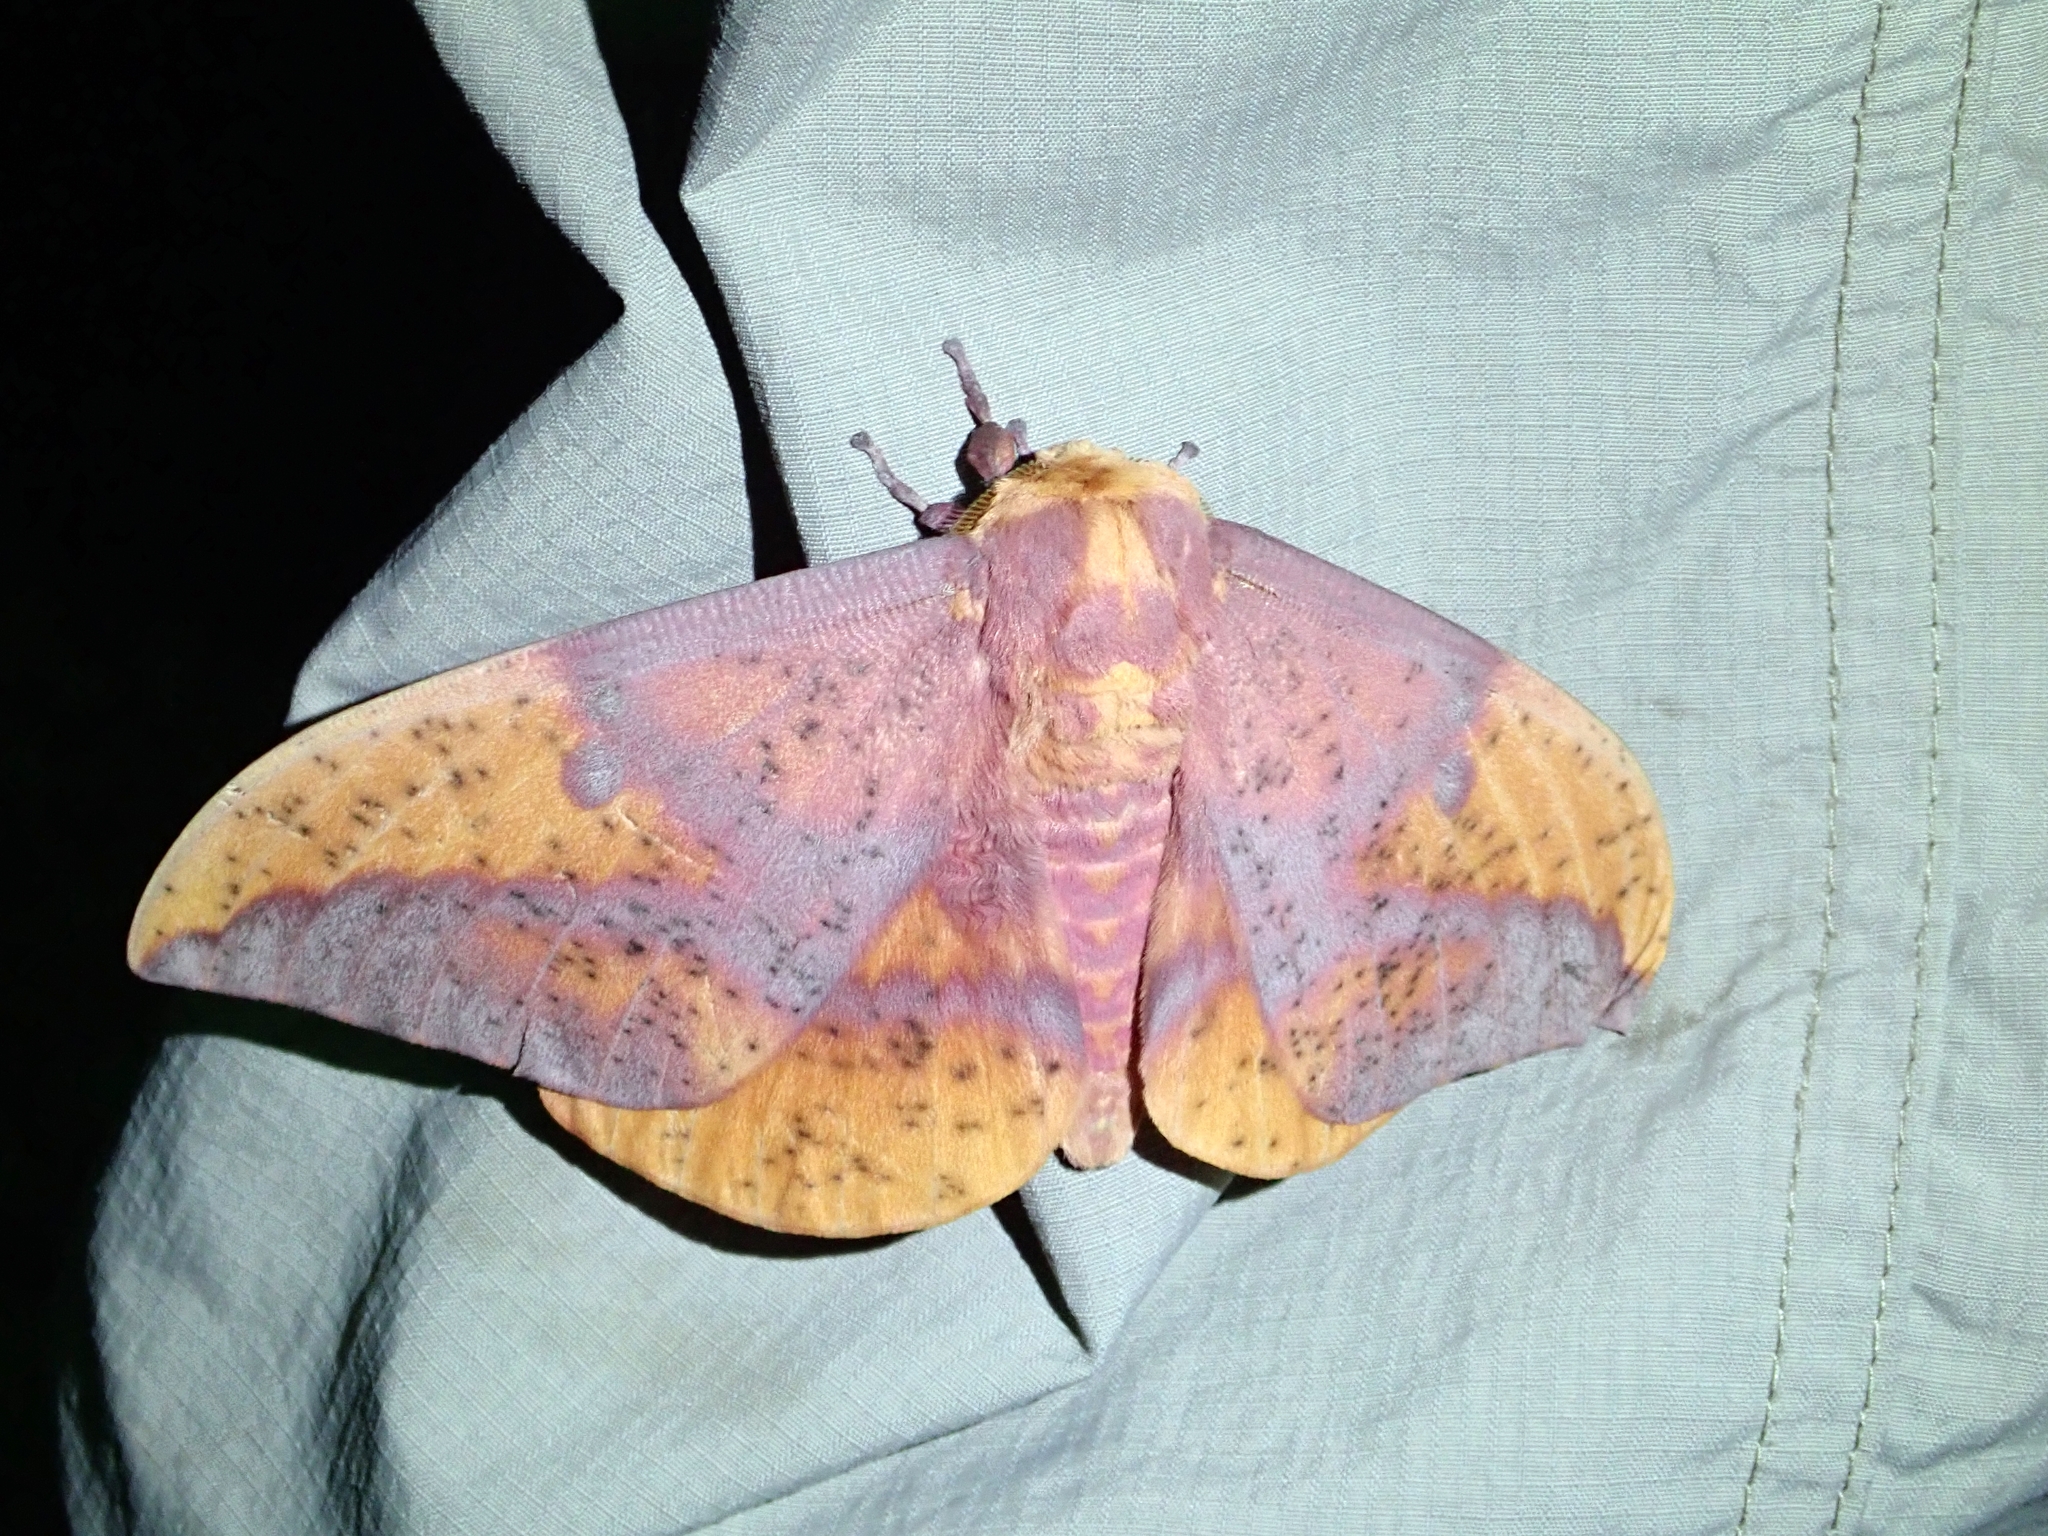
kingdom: Animalia
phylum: Arthropoda
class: Insecta
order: Lepidoptera
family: Saturniidae
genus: Eacles
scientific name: Eacles oslari
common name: Oslar's imperial moth
